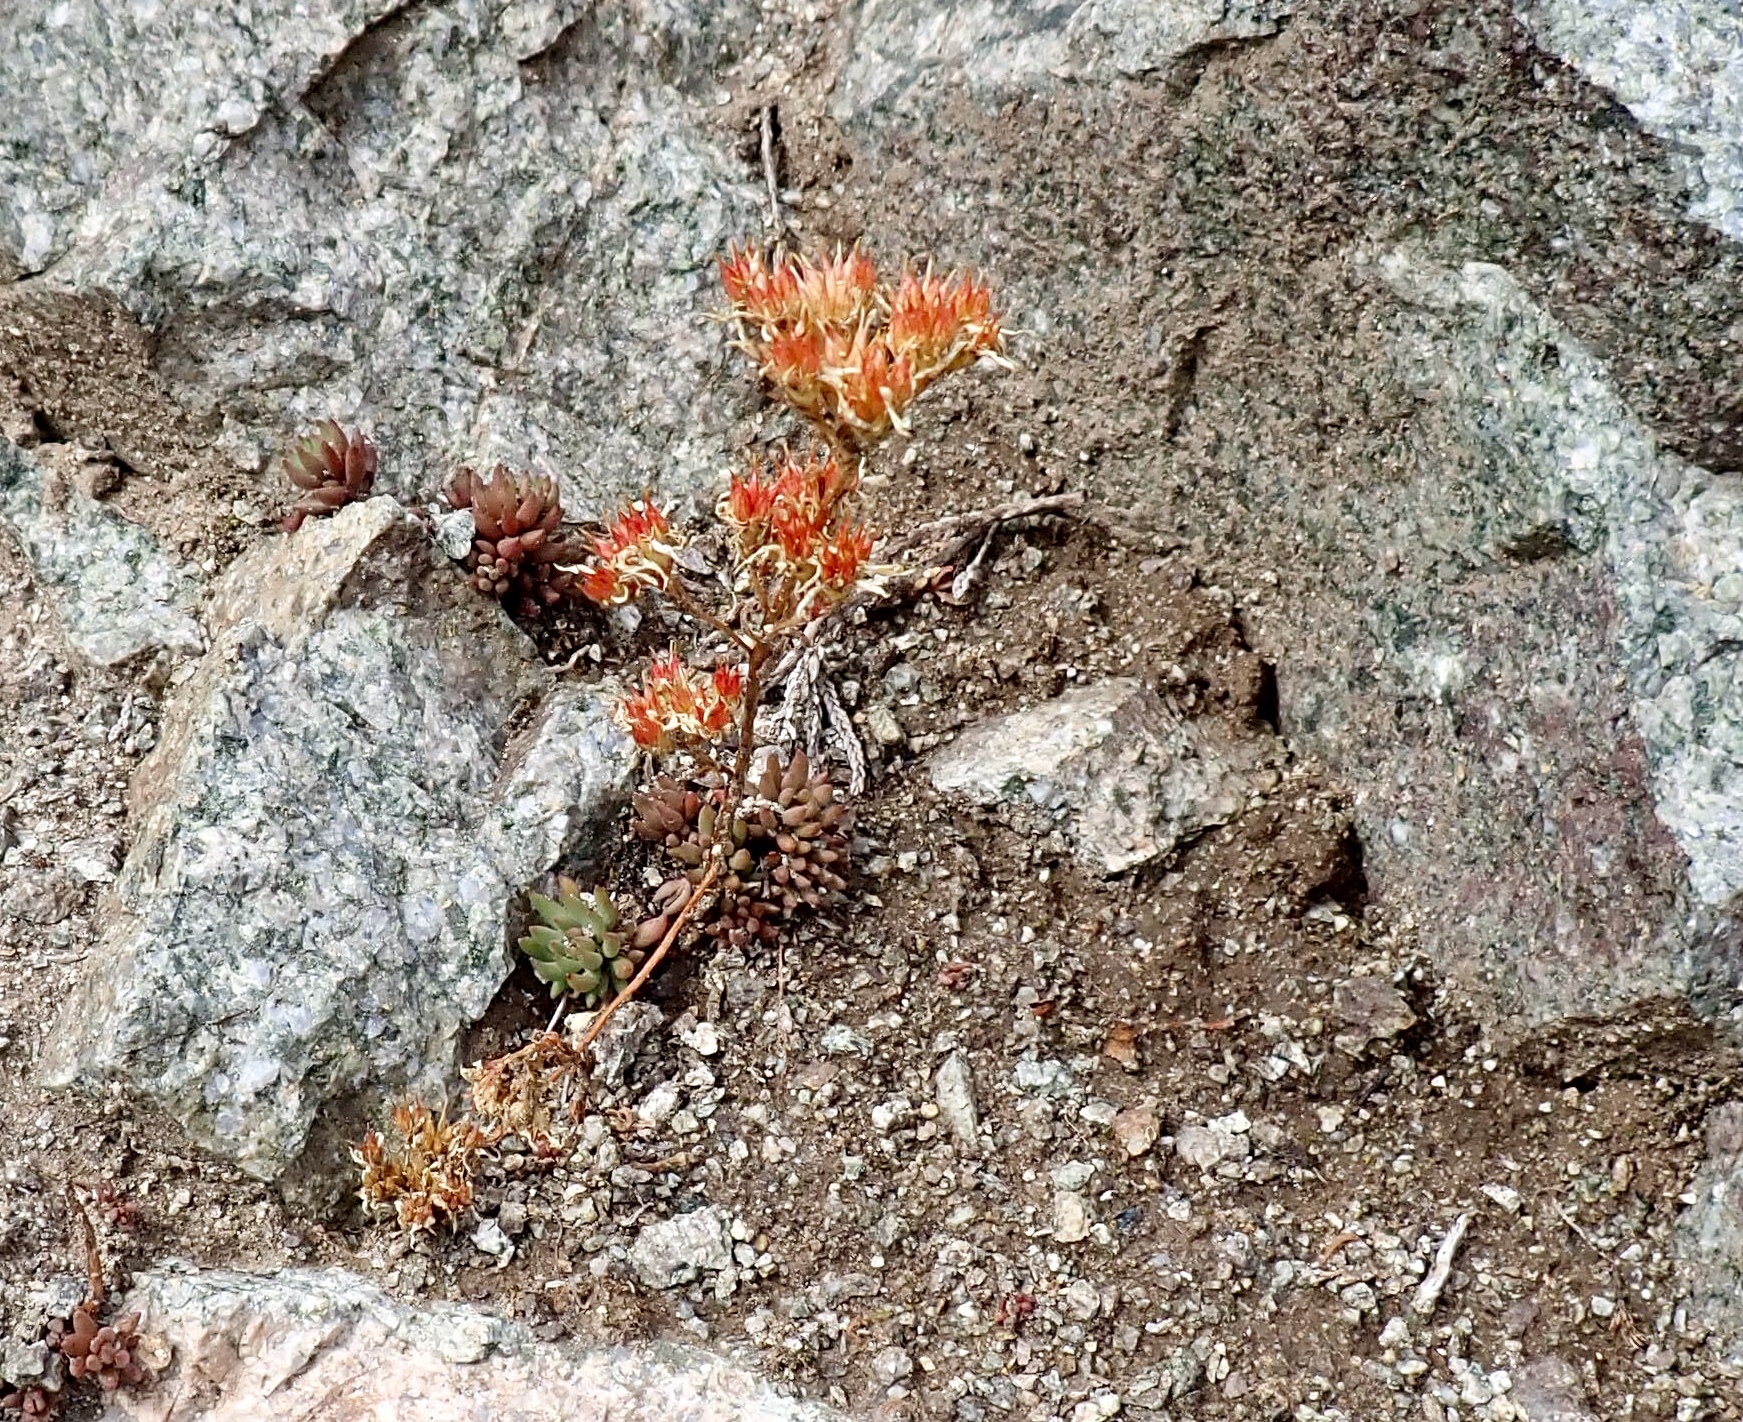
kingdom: Plantae
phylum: Tracheophyta
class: Magnoliopsida
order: Saxifragales
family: Crassulaceae
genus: Sedum
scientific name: Sedum lanceolatum
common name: Common stonecrop
